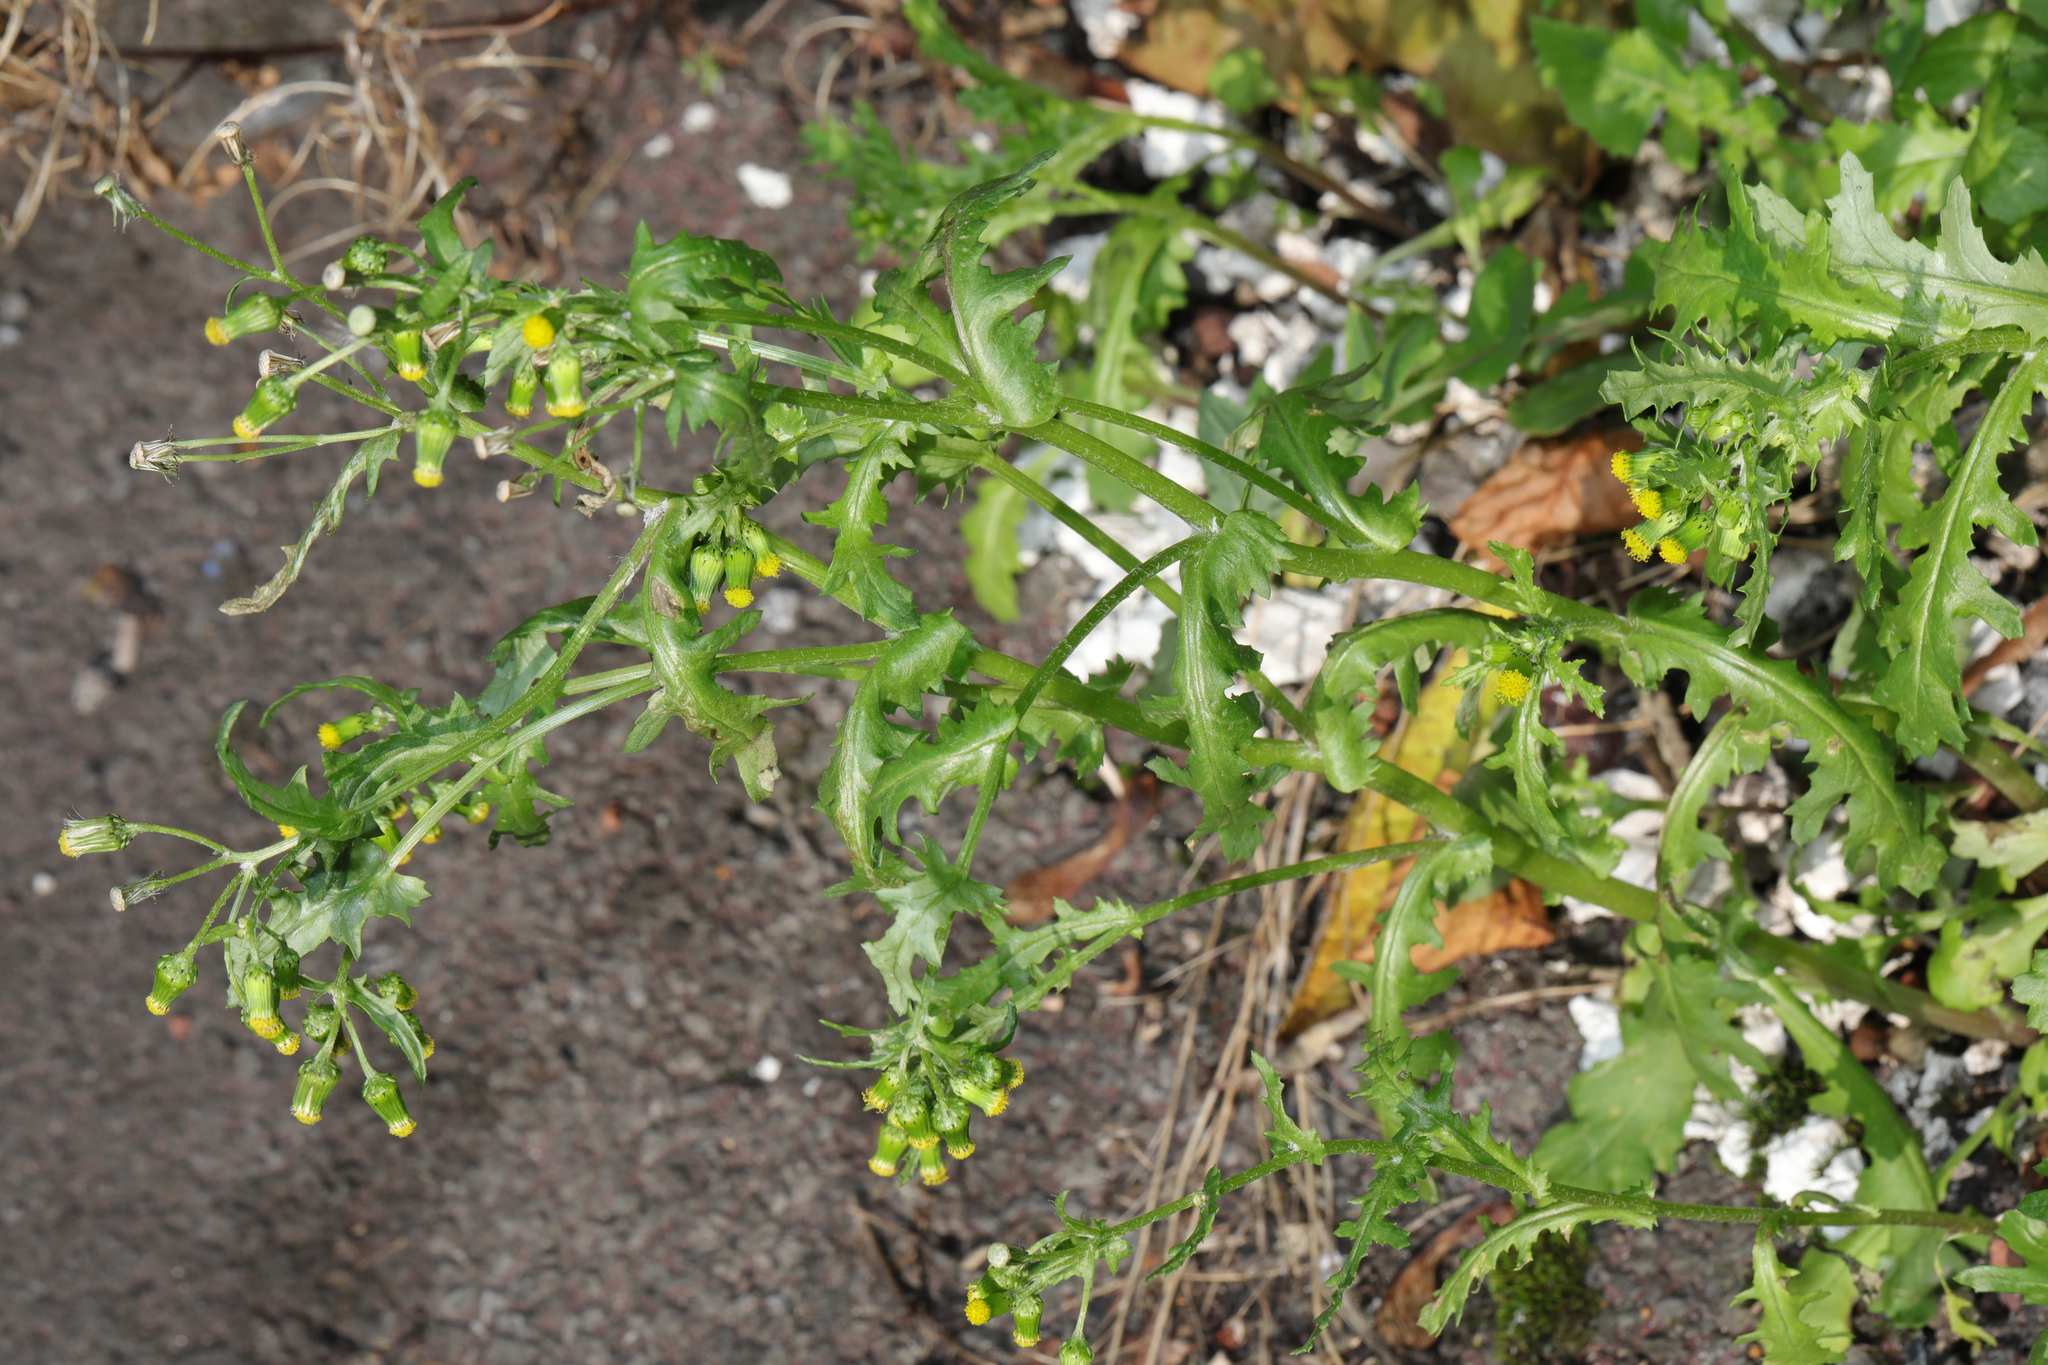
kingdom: Plantae
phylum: Tracheophyta
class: Magnoliopsida
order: Asterales
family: Asteraceae
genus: Senecio
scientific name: Senecio vulgaris
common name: Old-man-in-the-spring
